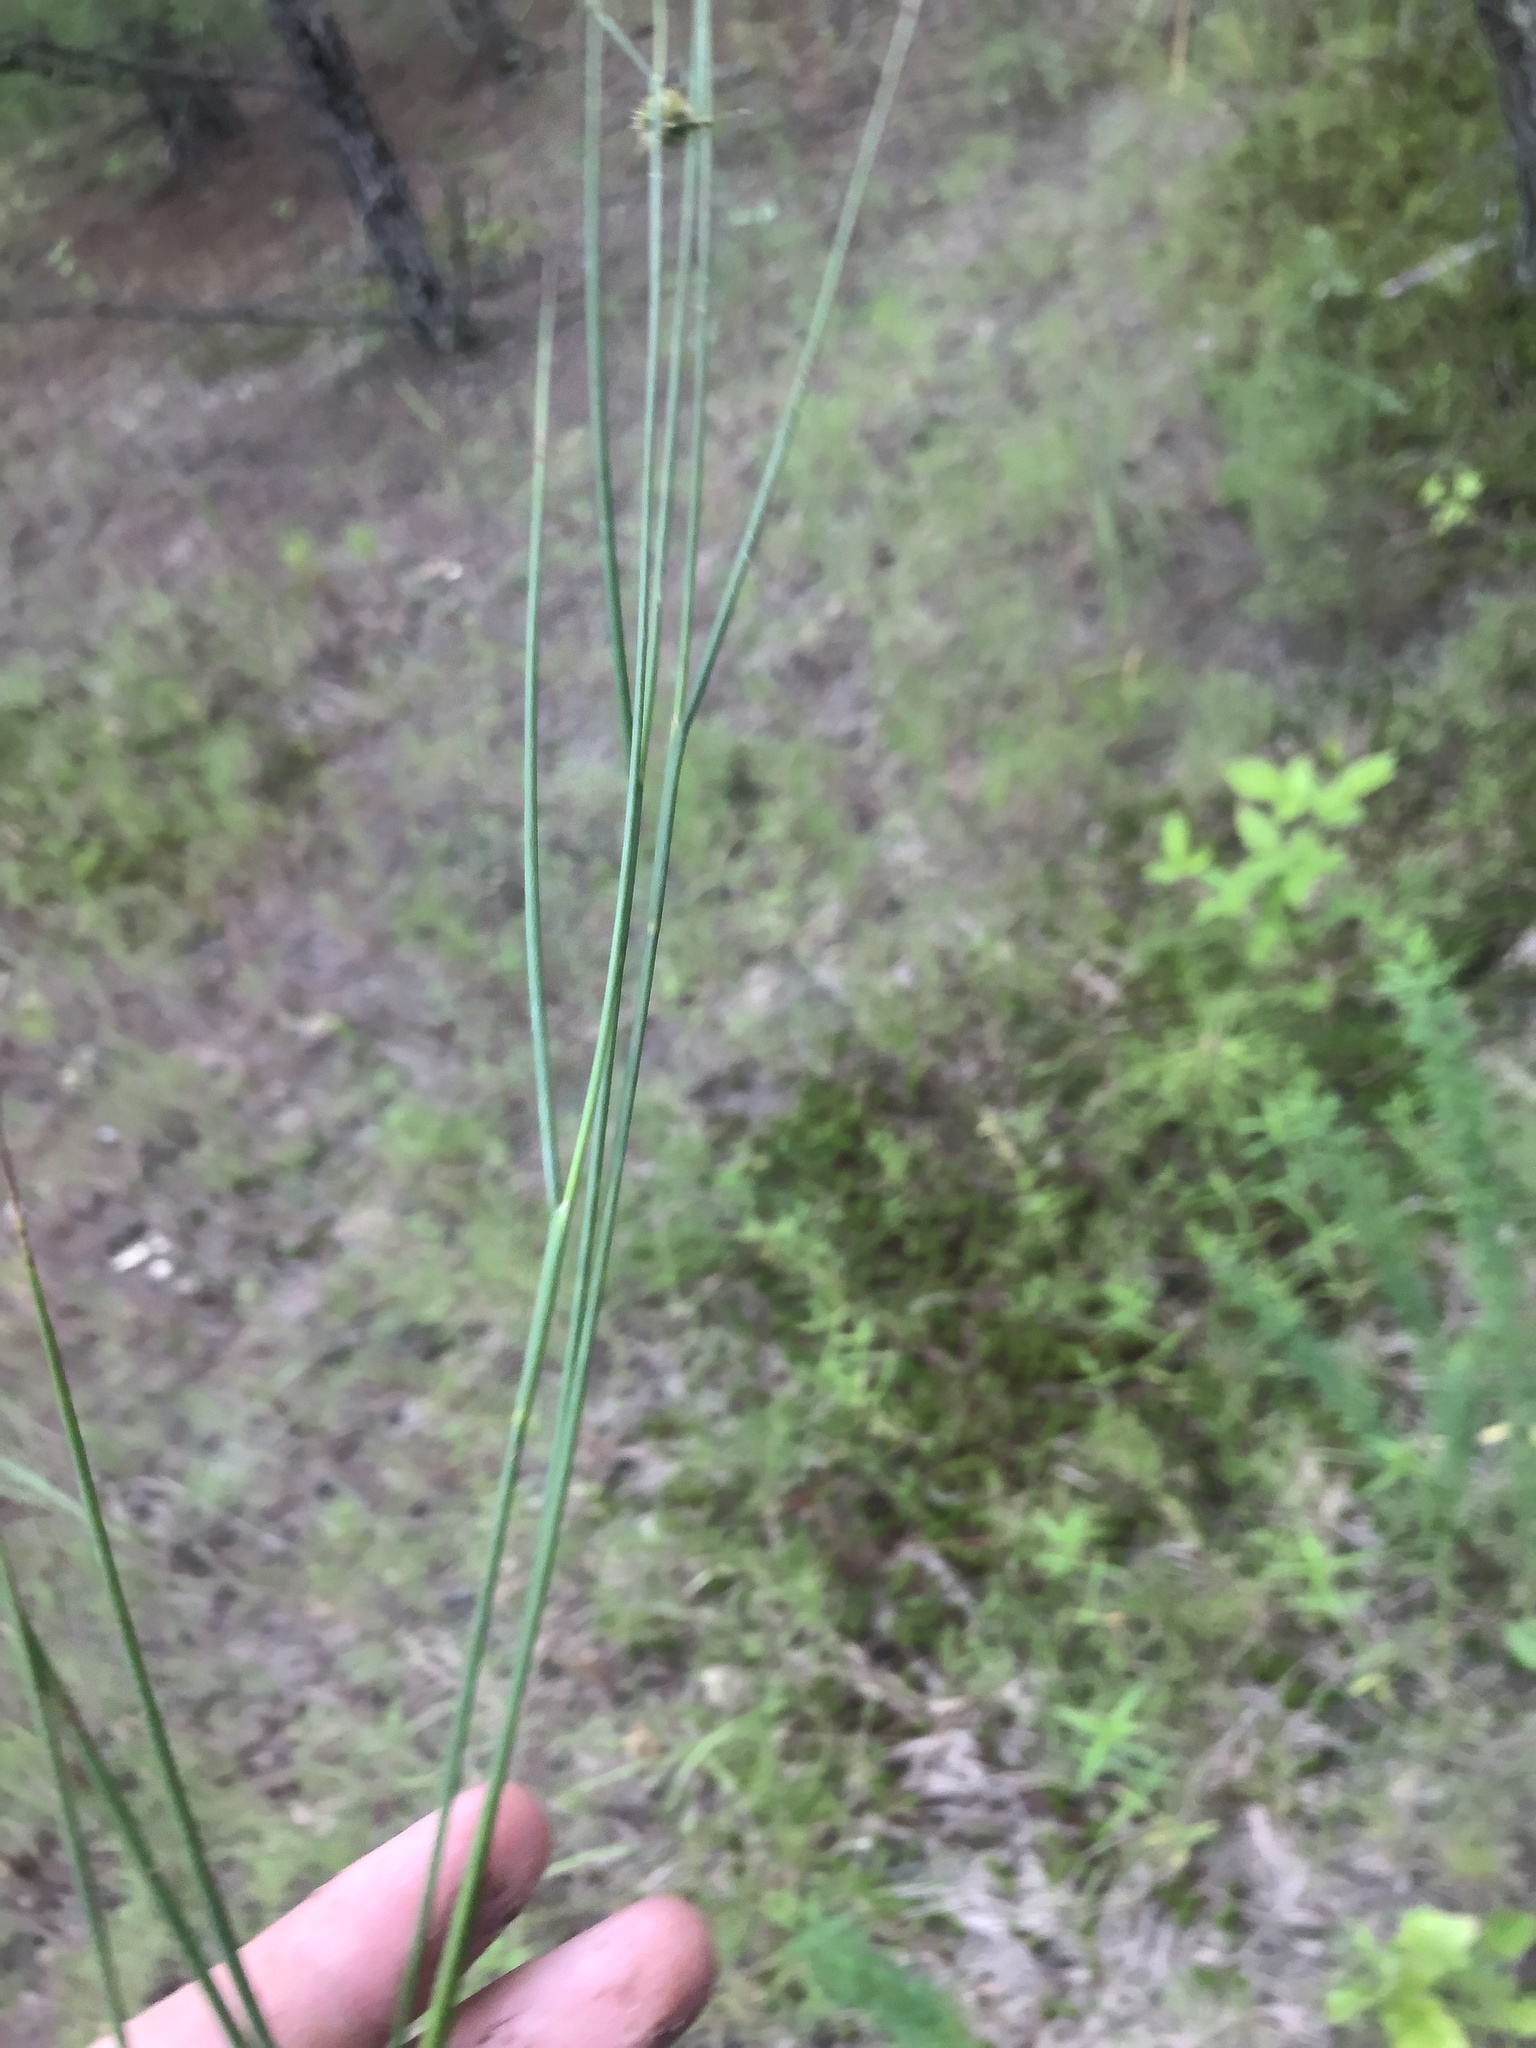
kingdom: Plantae
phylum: Tracheophyta
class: Magnoliopsida
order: Malpighiales
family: Hypericaceae
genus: Hypericum
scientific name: Hypericum gentianoides
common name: Gentian-leaved st. john's-wort
